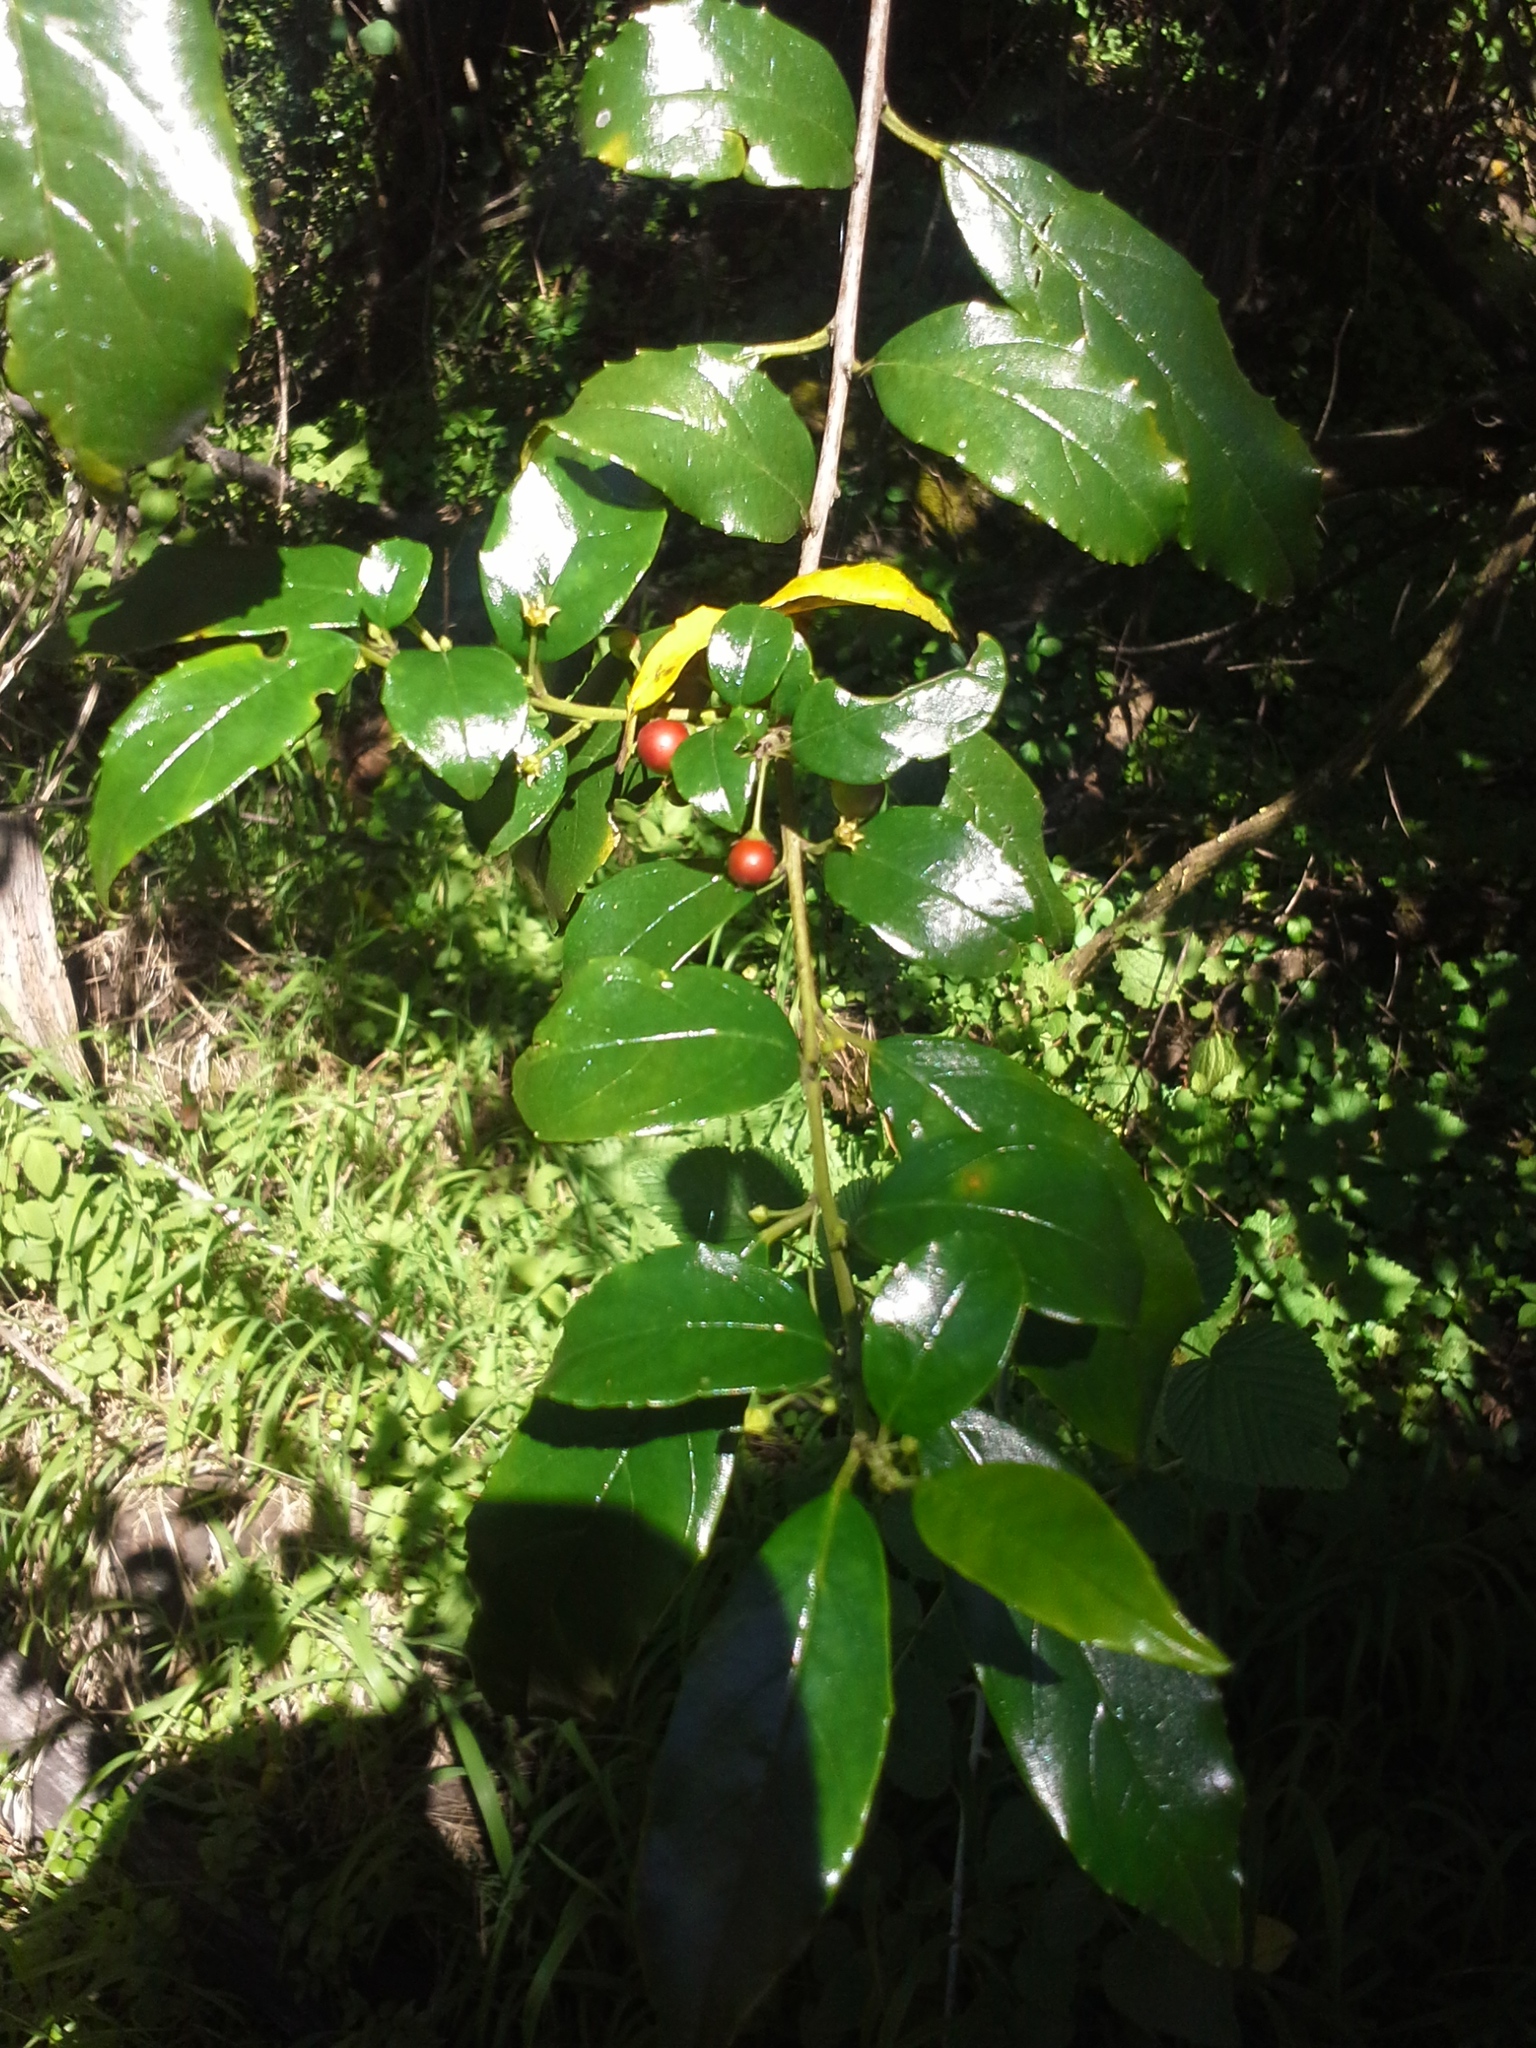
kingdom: Plantae
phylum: Tracheophyta
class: Magnoliopsida
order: Rosales
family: Rhamnaceae
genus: Rhamnus
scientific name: Rhamnus prinoides
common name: Dogwood
